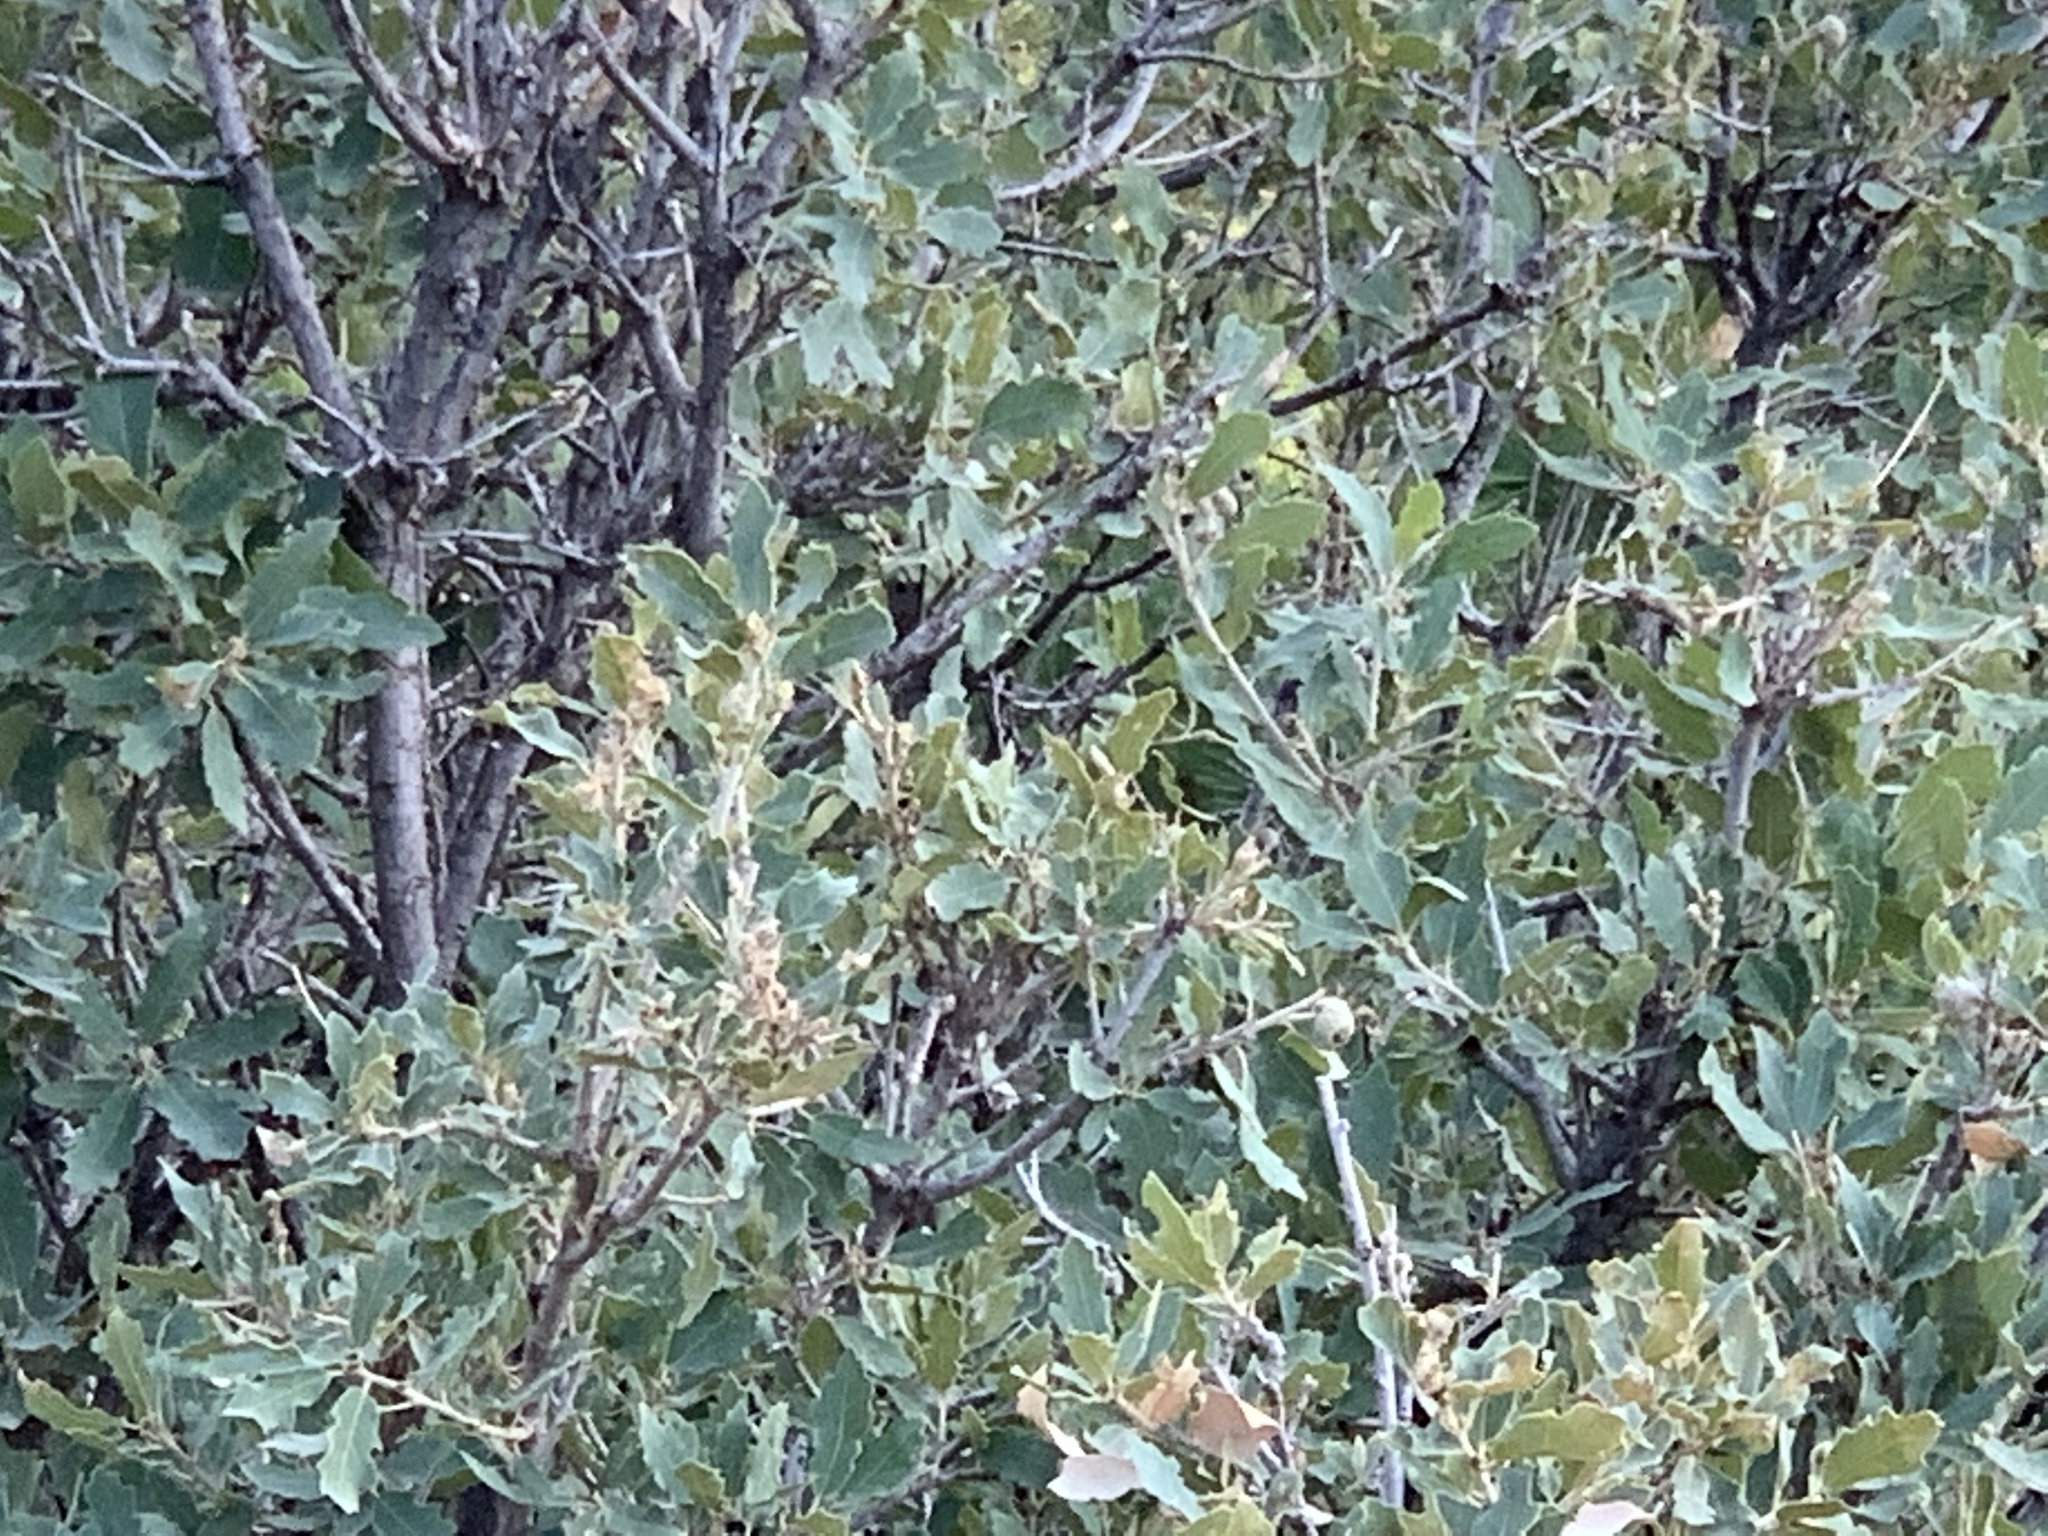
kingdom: Plantae
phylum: Tracheophyta
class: Magnoliopsida
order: Fagales
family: Fagaceae
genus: Quercus
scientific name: Quercus undulata
